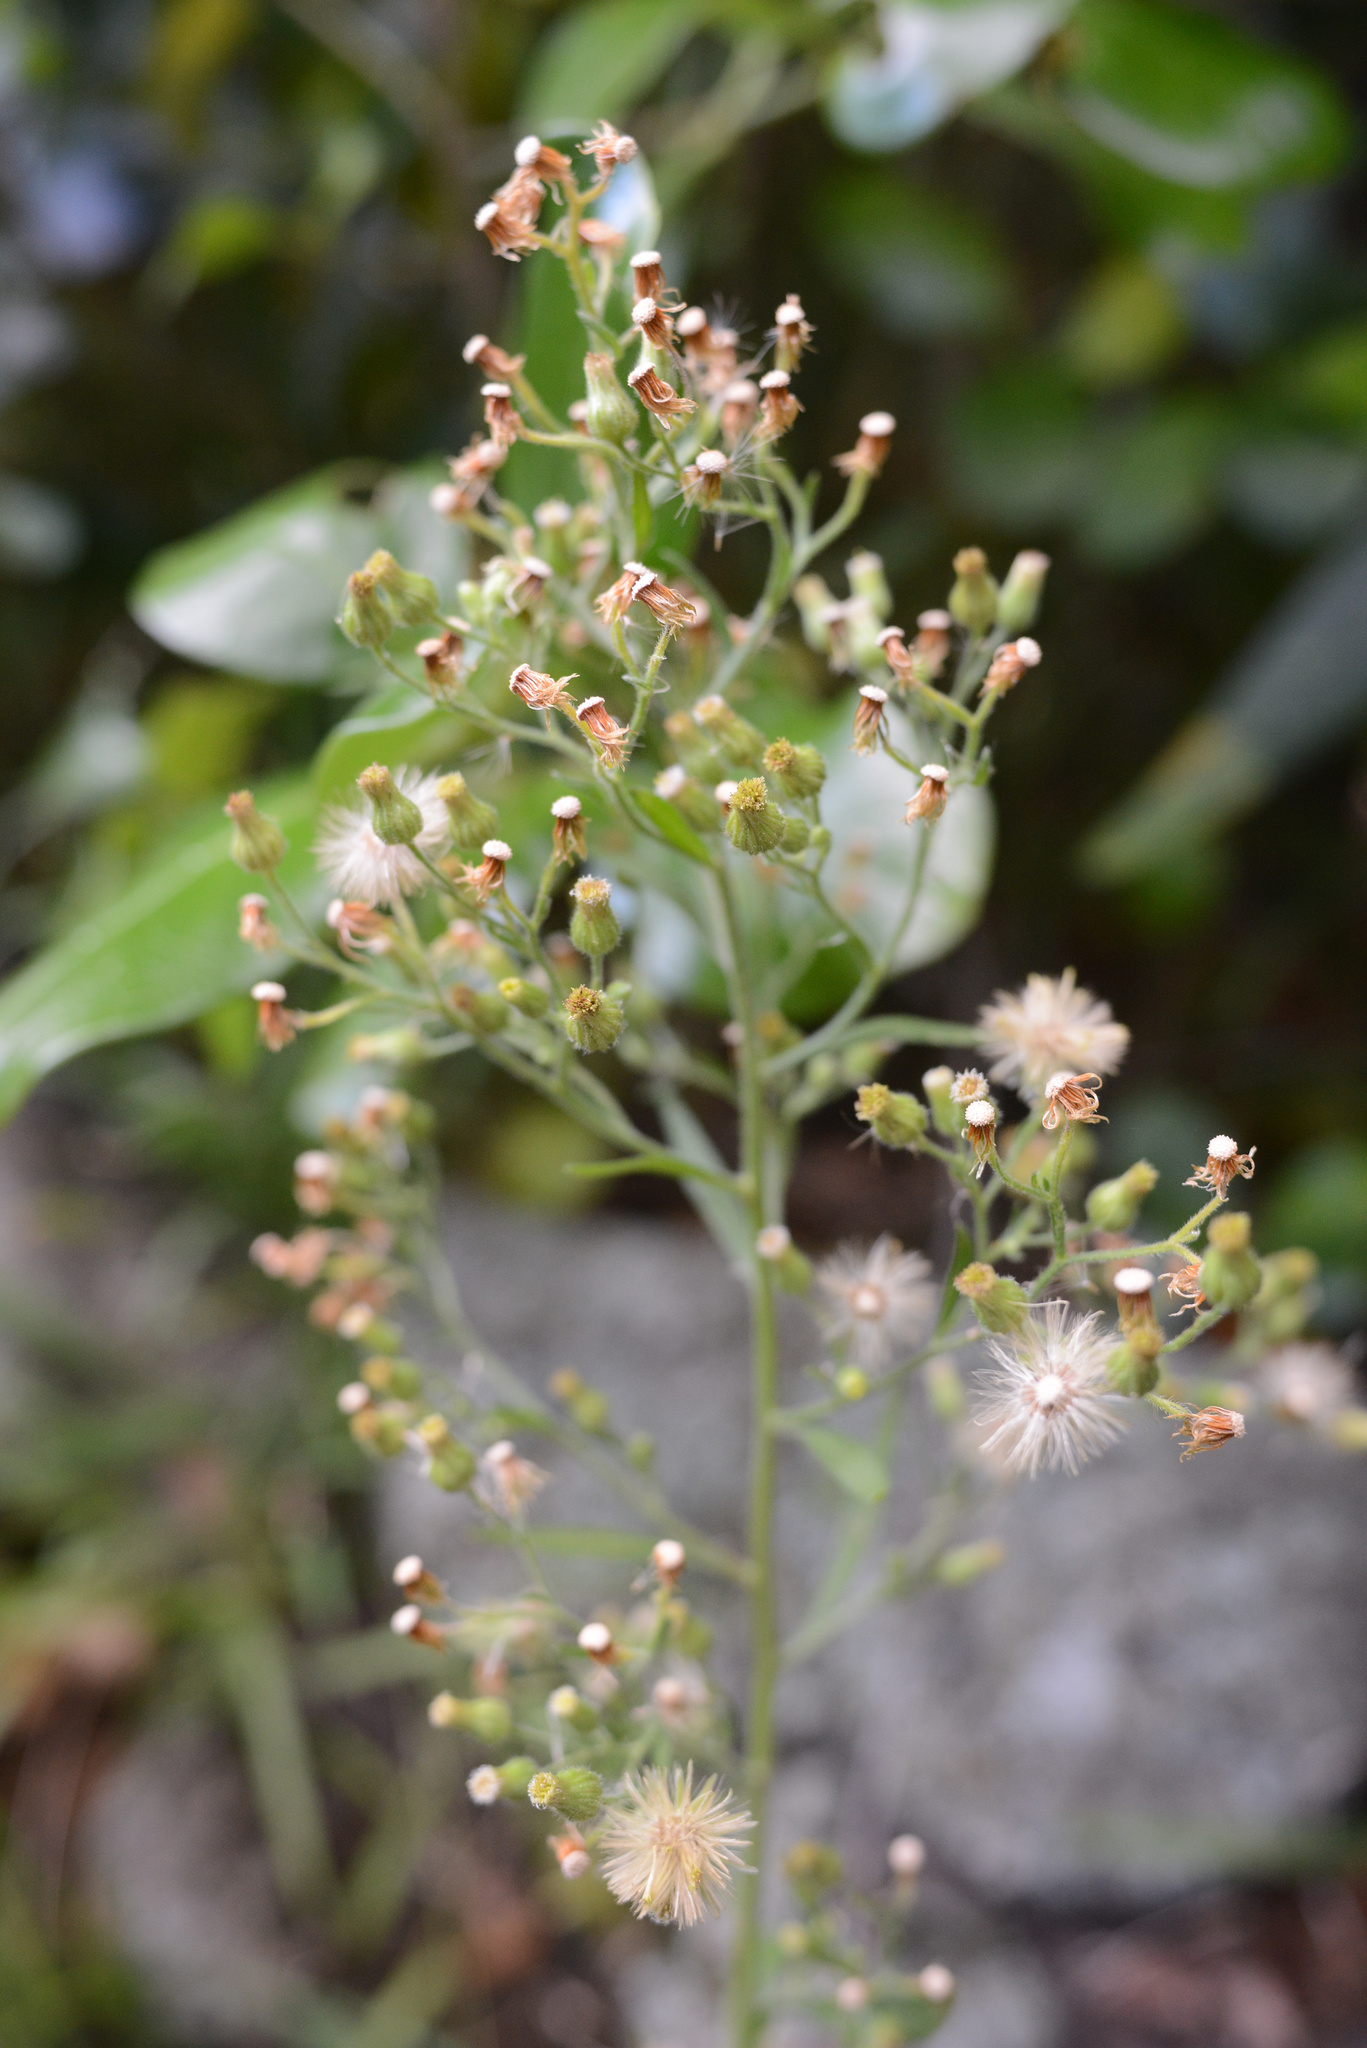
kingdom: Plantae
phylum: Tracheophyta
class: Magnoliopsida
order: Asterales
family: Asteraceae
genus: Erigeron
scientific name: Erigeron sumatrensis
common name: Daisy
